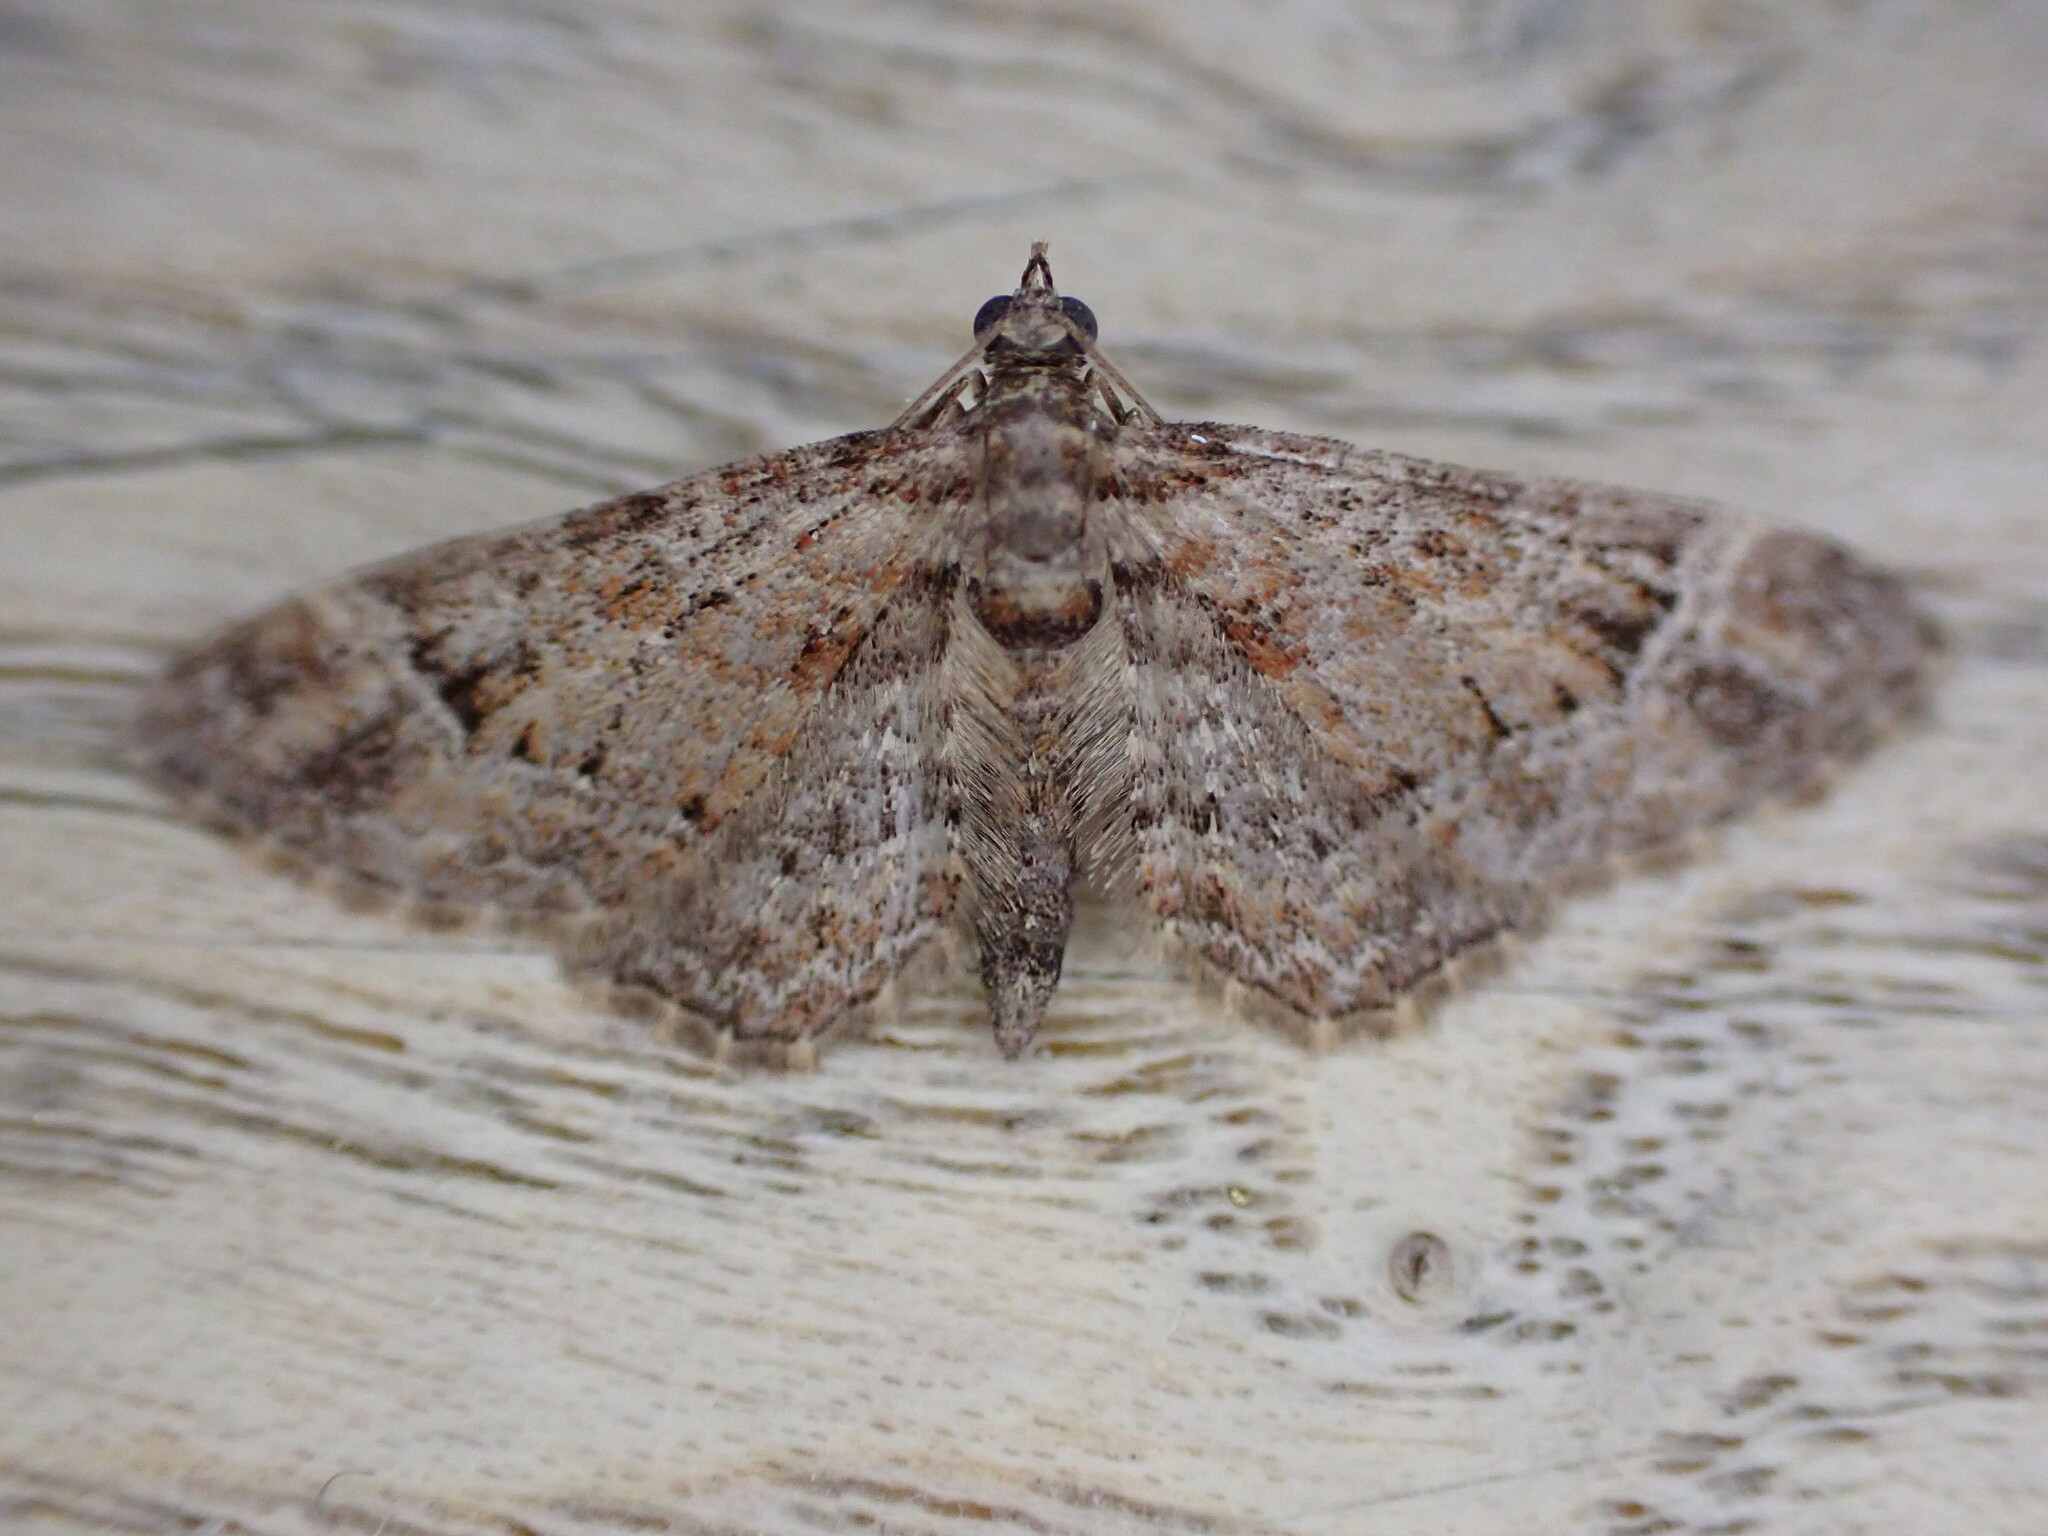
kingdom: Animalia
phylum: Arthropoda
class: Insecta
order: Lepidoptera
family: Geometridae
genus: Gymnoscelis
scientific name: Gymnoscelis rufifasciata
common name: Double-striped pug
